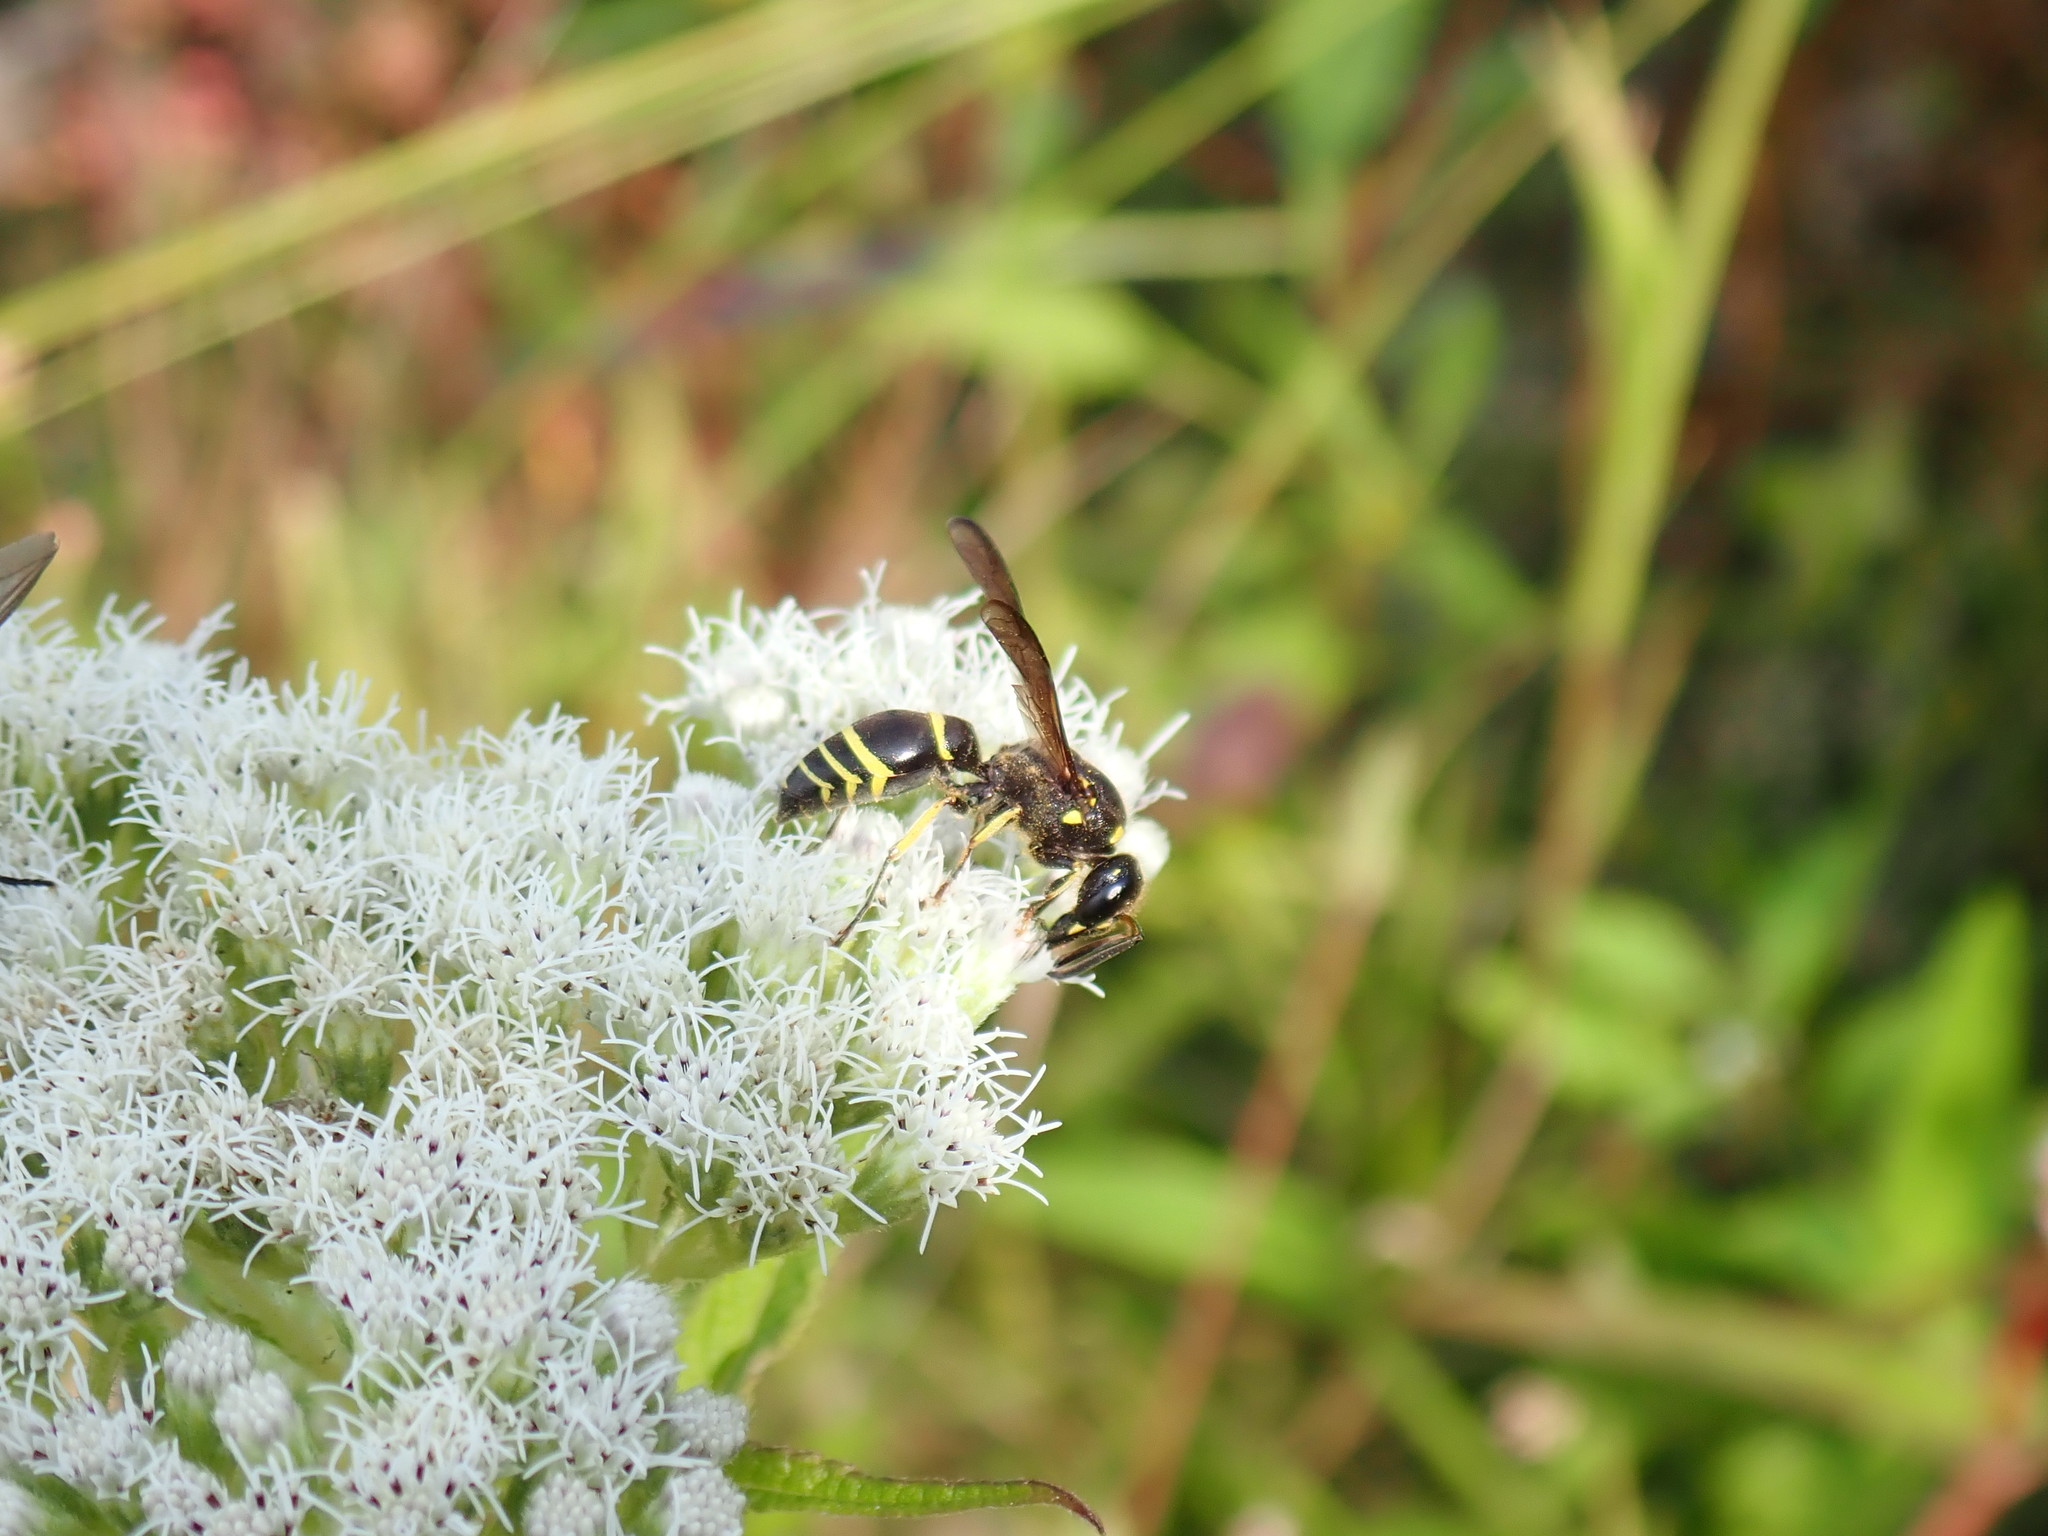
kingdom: Animalia
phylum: Arthropoda
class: Insecta
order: Hymenoptera
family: Vespidae
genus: Ancistrocerus
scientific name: Ancistrocerus
